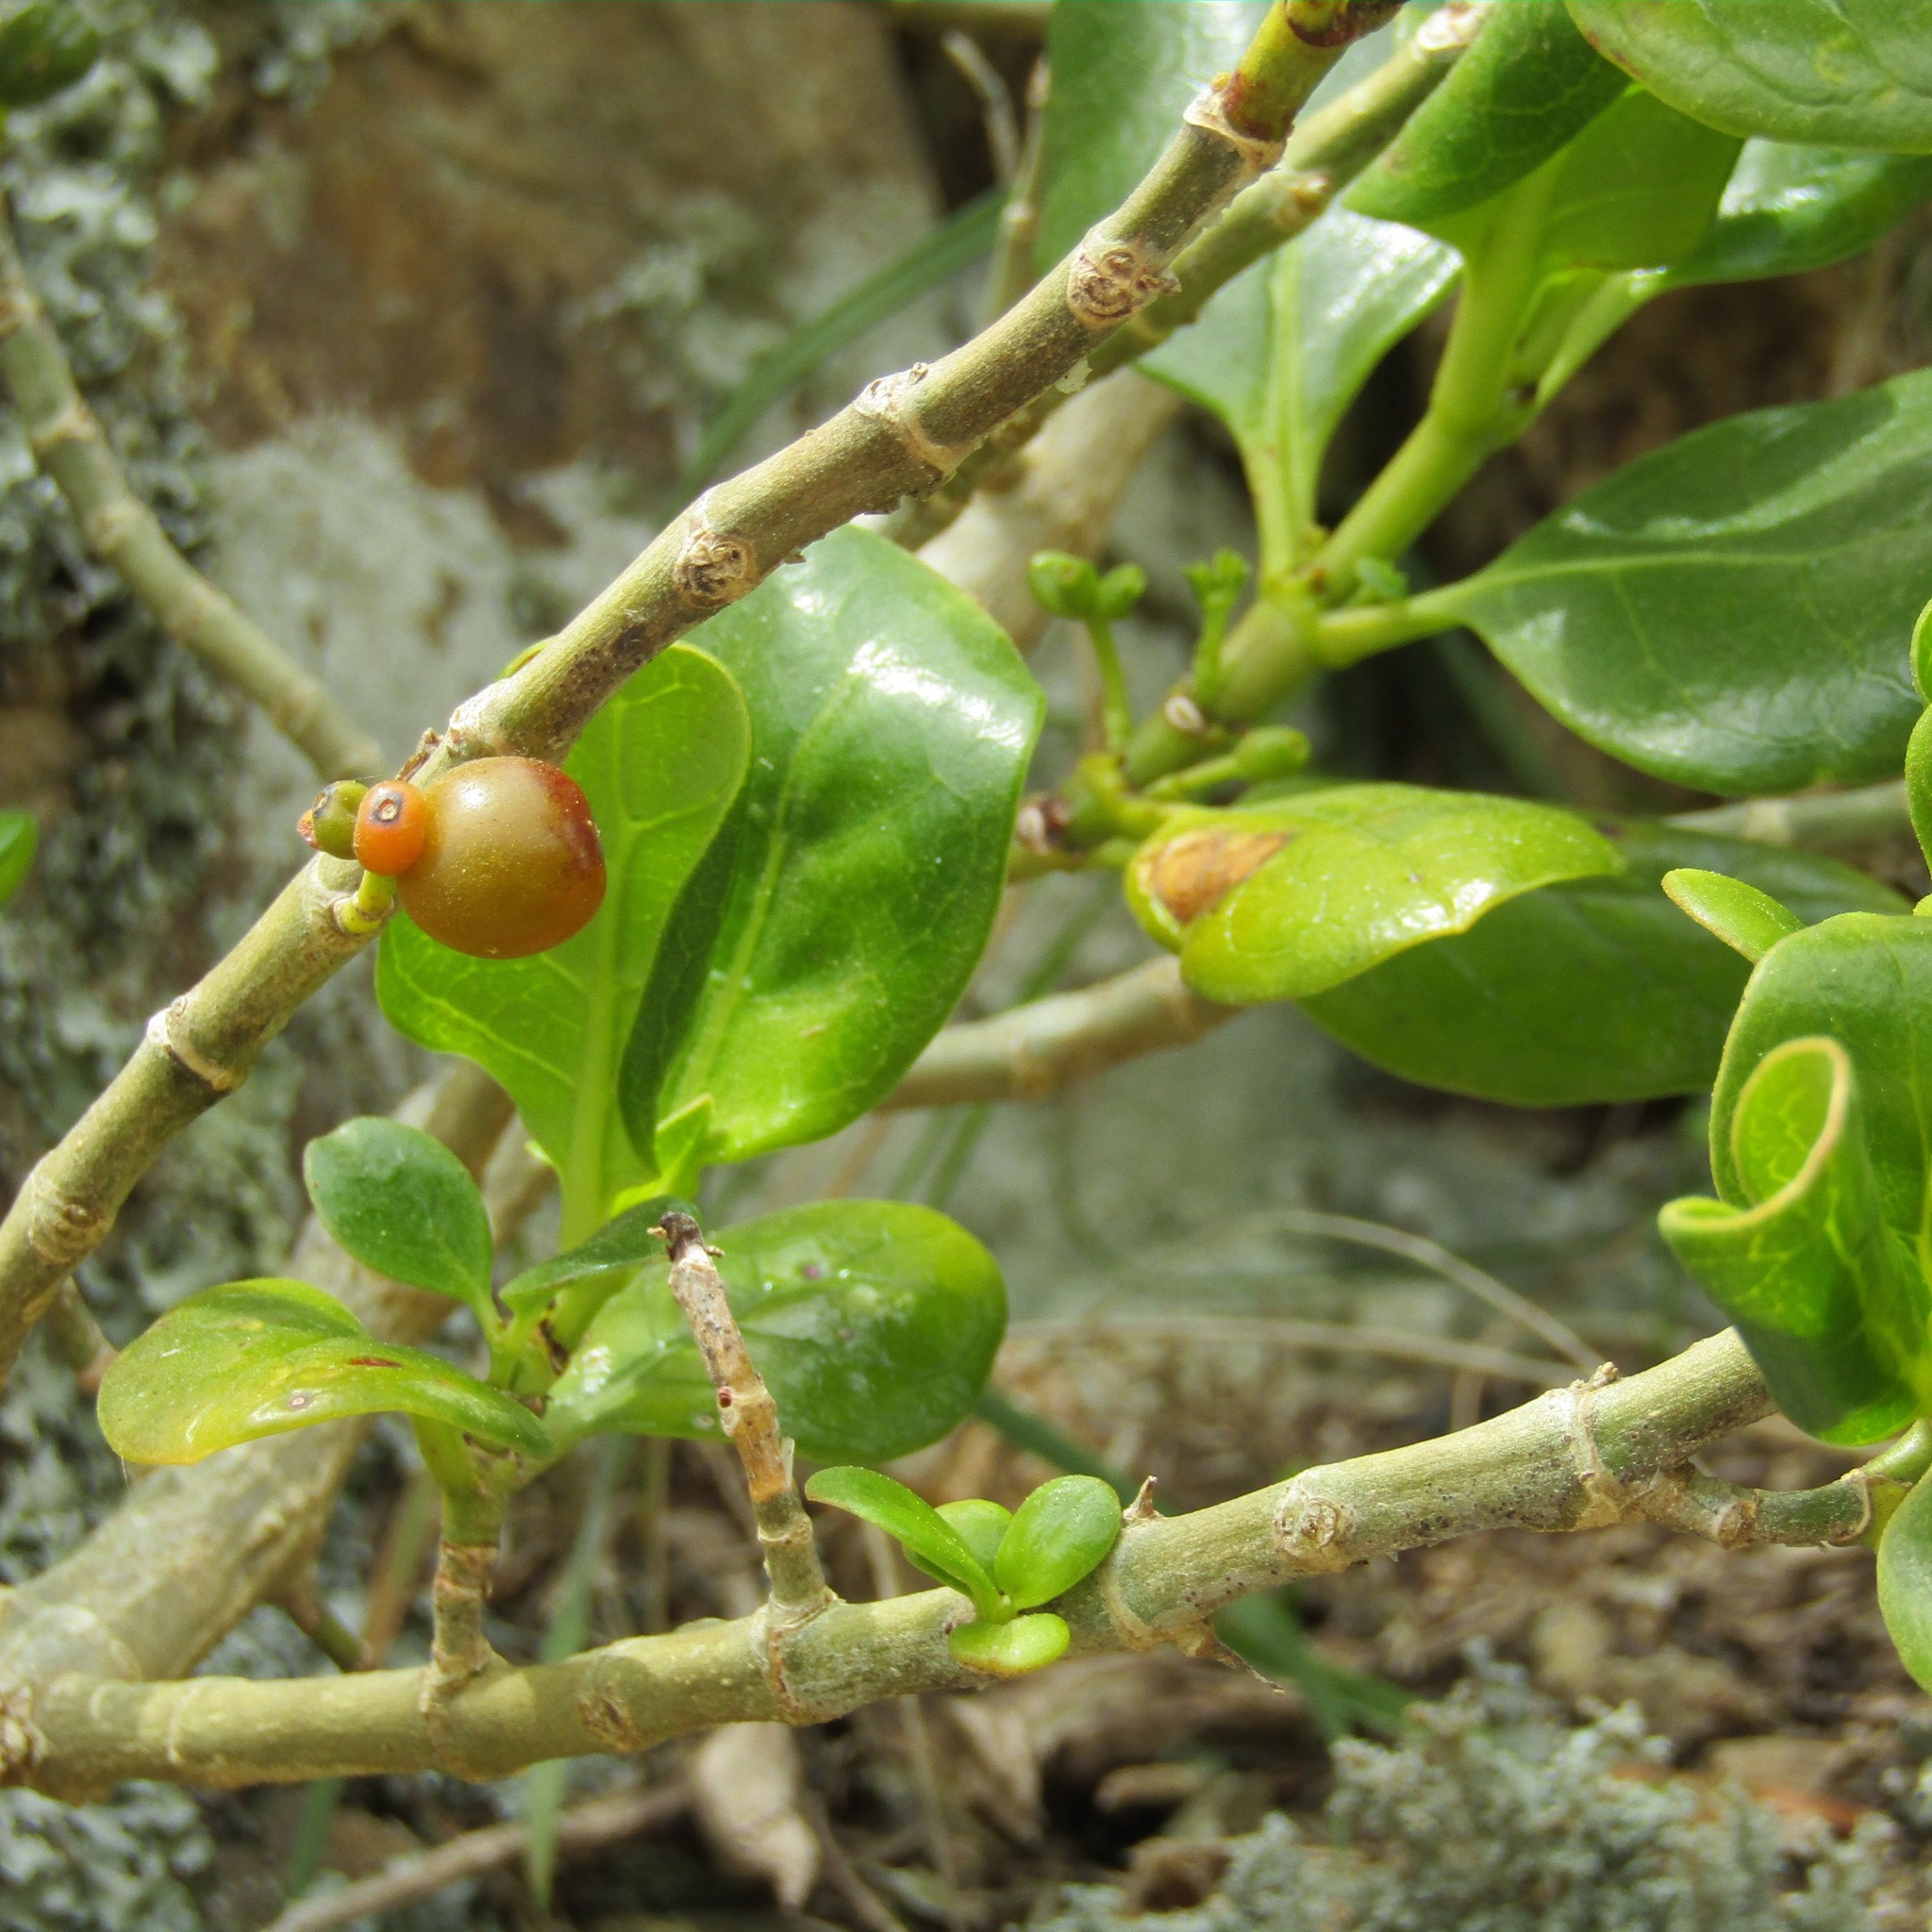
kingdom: Plantae
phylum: Tracheophyta
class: Magnoliopsida
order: Gentianales
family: Rubiaceae
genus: Coprosma
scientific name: Coprosma repens
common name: Tree bedstraw
